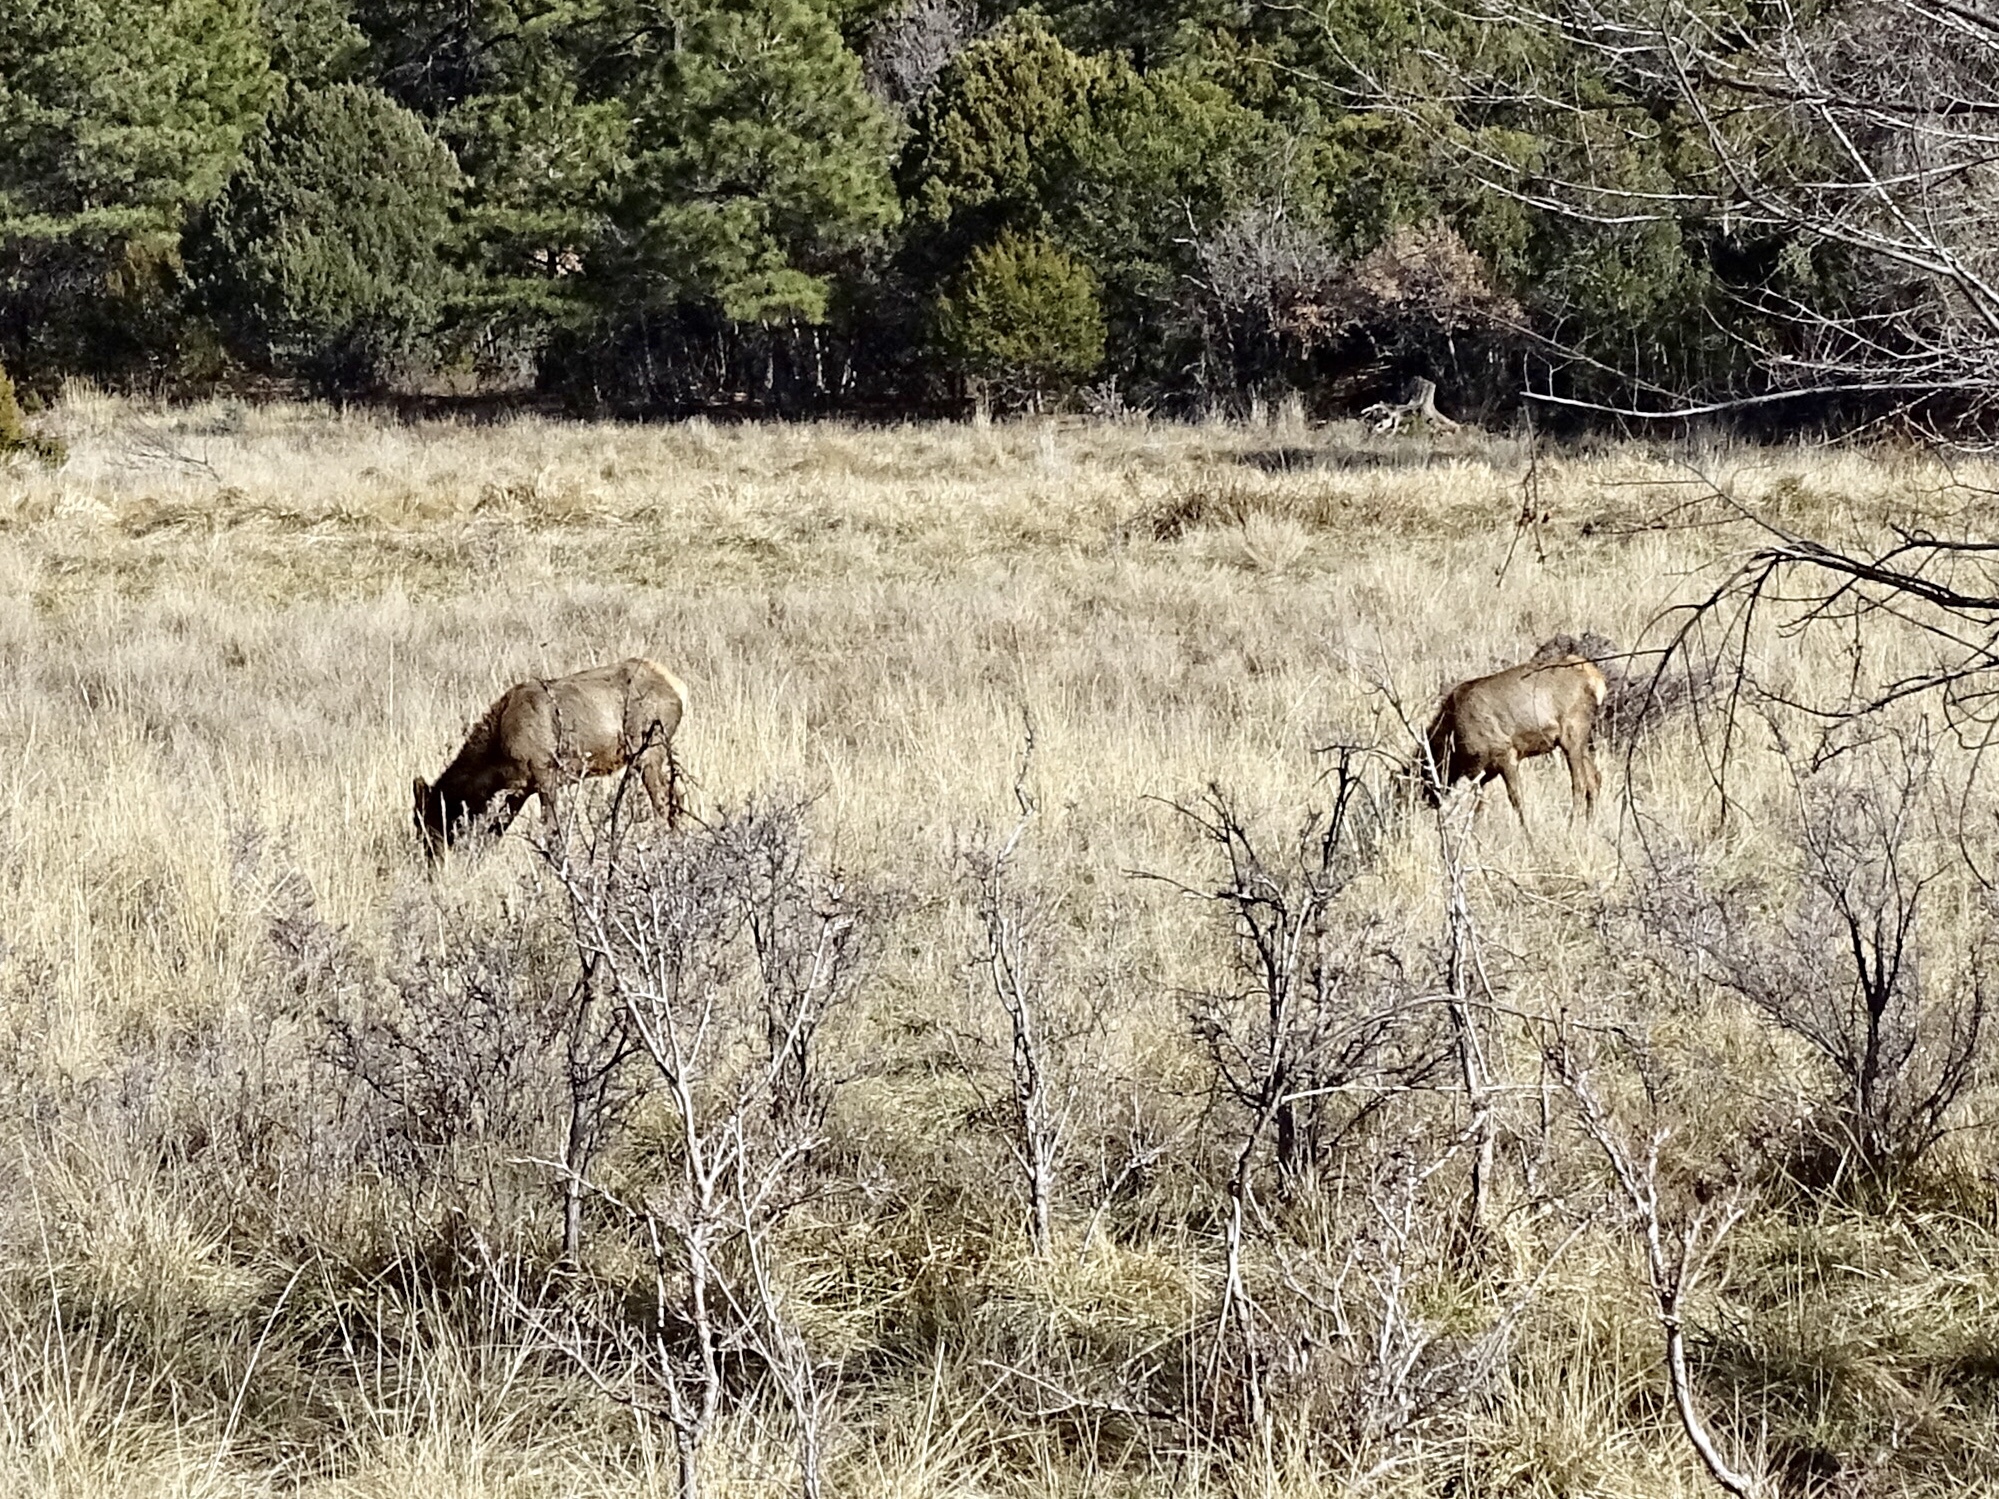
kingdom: Animalia
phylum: Chordata
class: Mammalia
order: Artiodactyla
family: Cervidae
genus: Cervus
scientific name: Cervus elaphus
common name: Red deer
